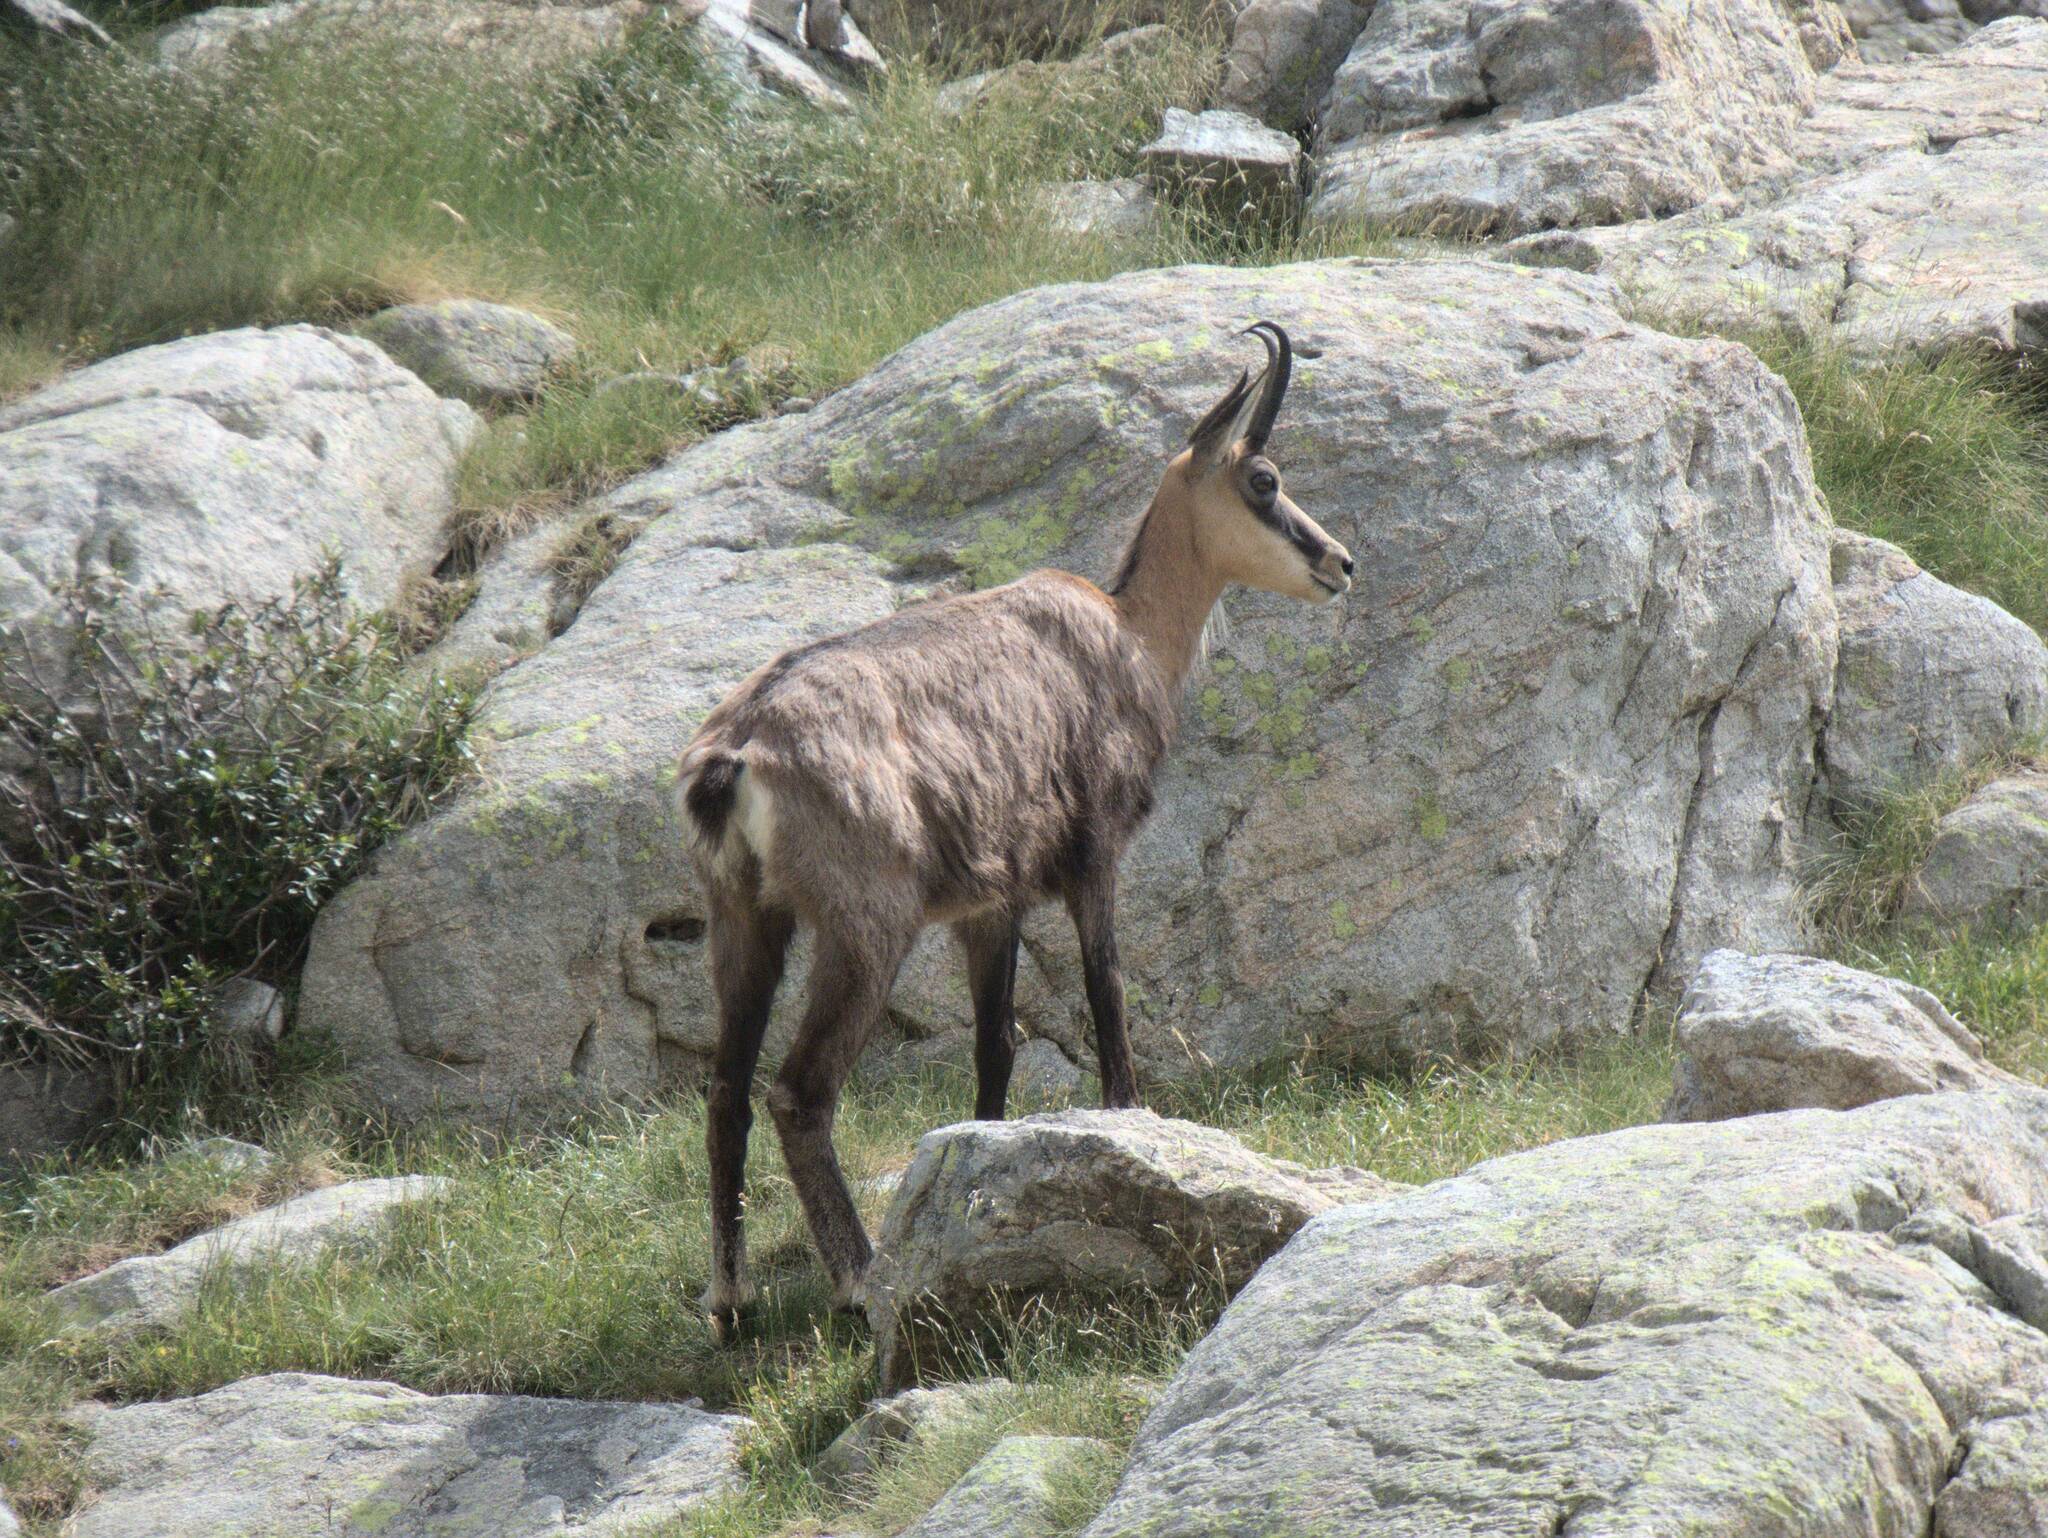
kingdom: Animalia
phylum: Chordata
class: Mammalia
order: Artiodactyla
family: Bovidae
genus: Rupicapra
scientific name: Rupicapra rupicapra
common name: Chamois
